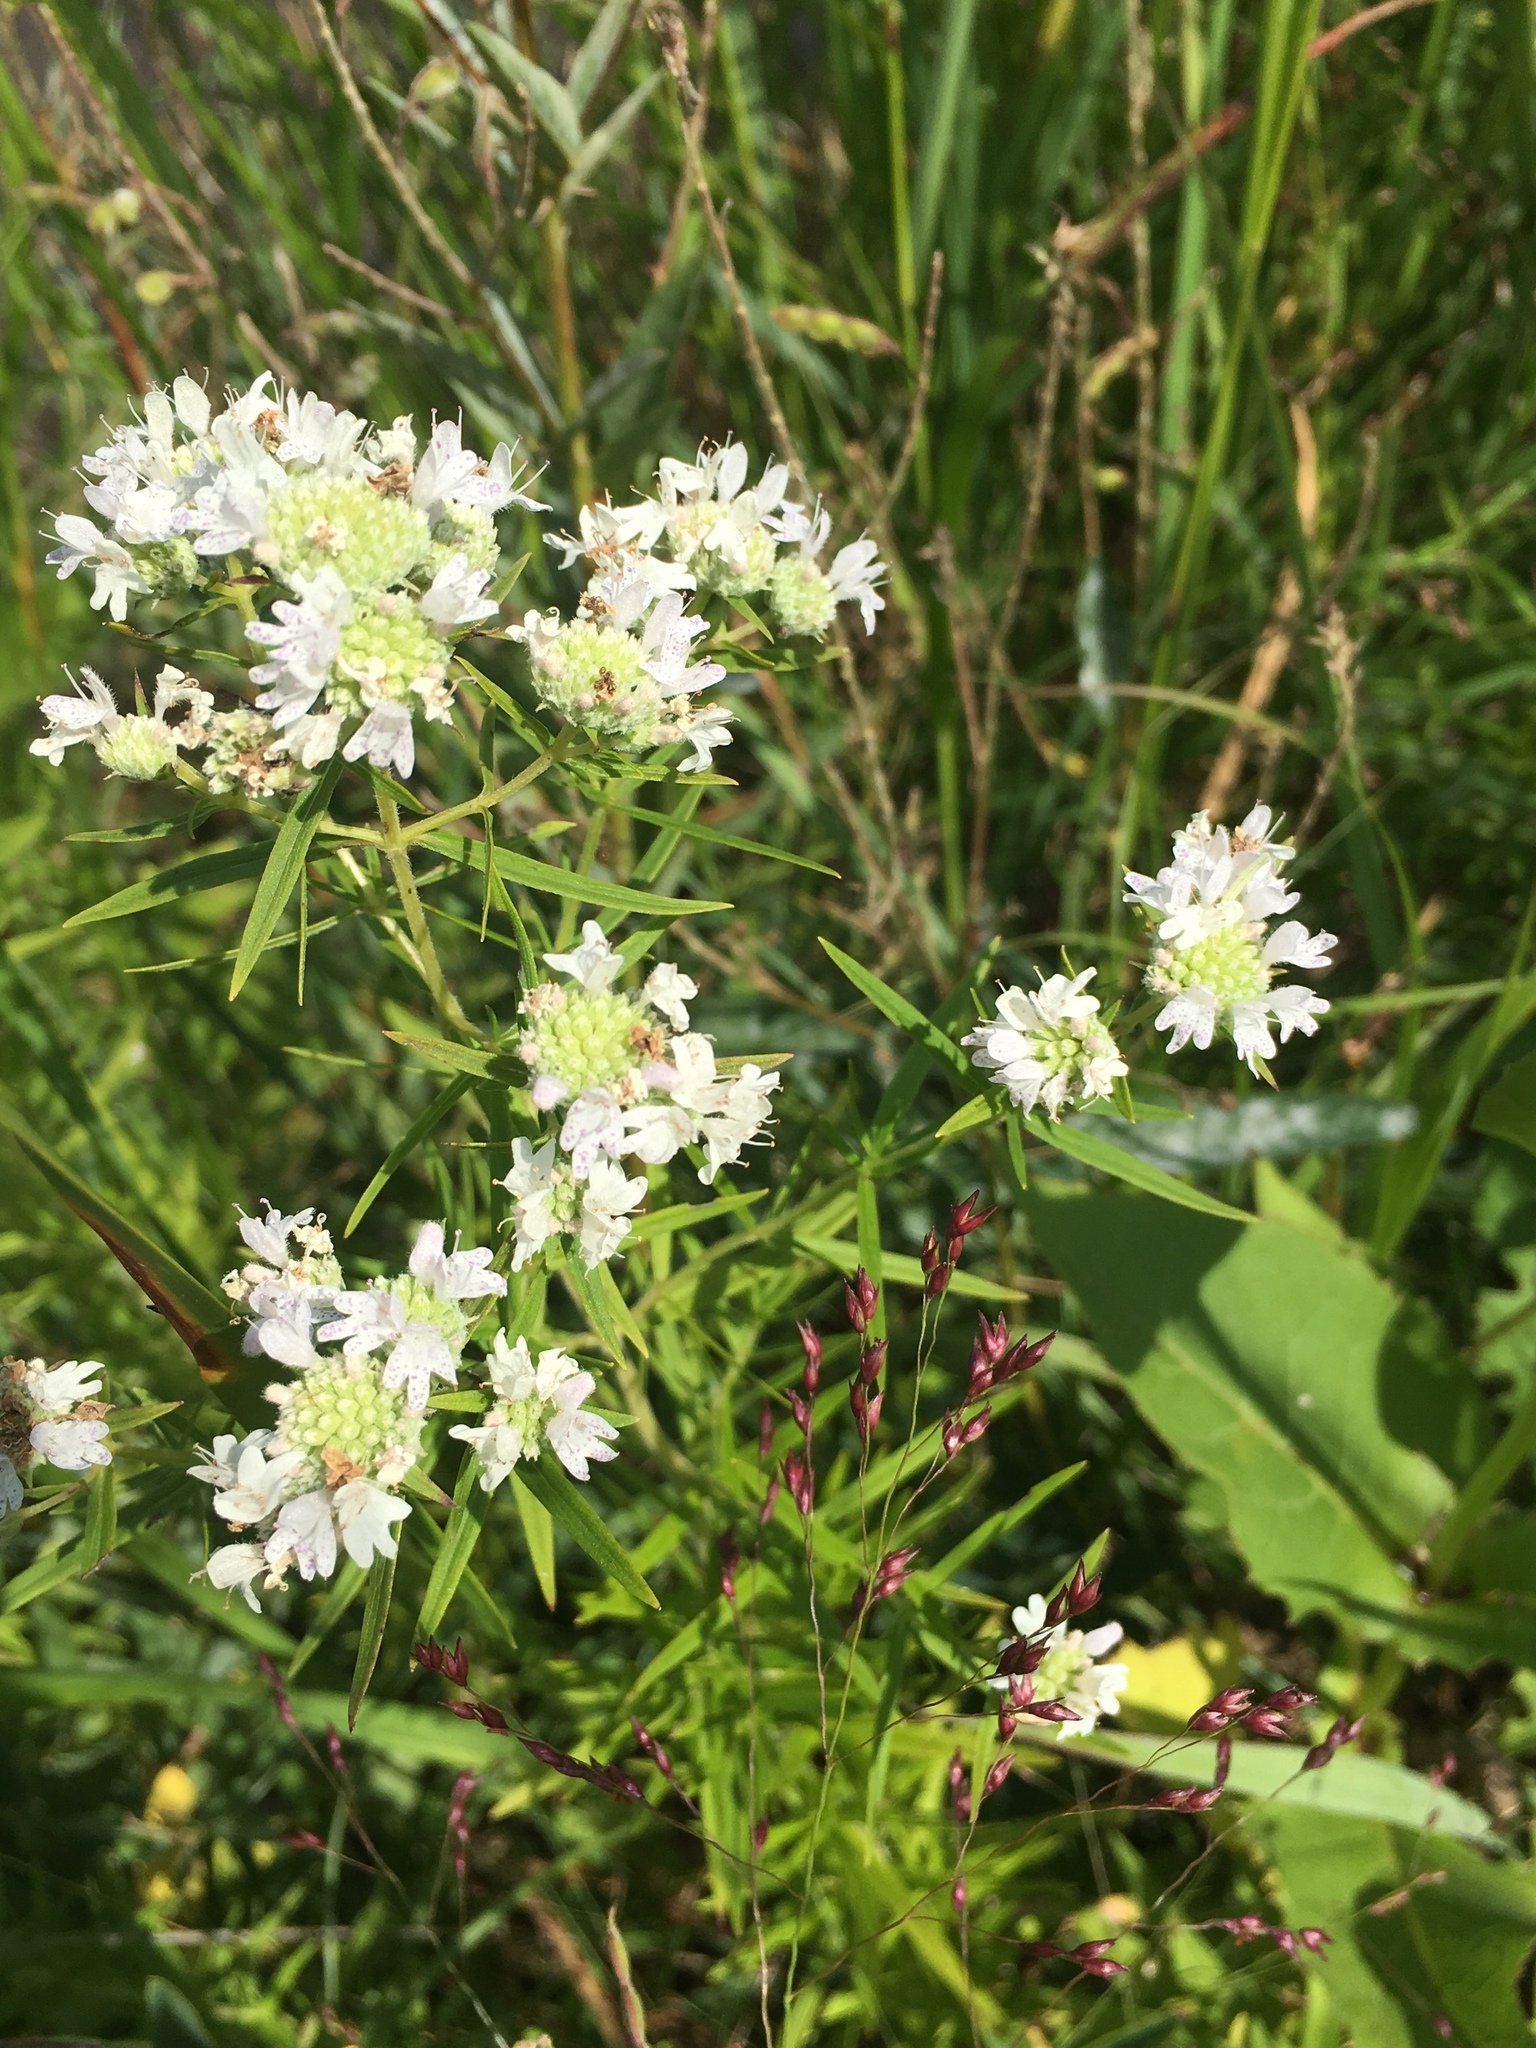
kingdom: Plantae
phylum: Tracheophyta
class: Magnoliopsida
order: Lamiales
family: Lamiaceae
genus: Pycnanthemum
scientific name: Pycnanthemum virginianum
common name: Virginia mountain-mint
